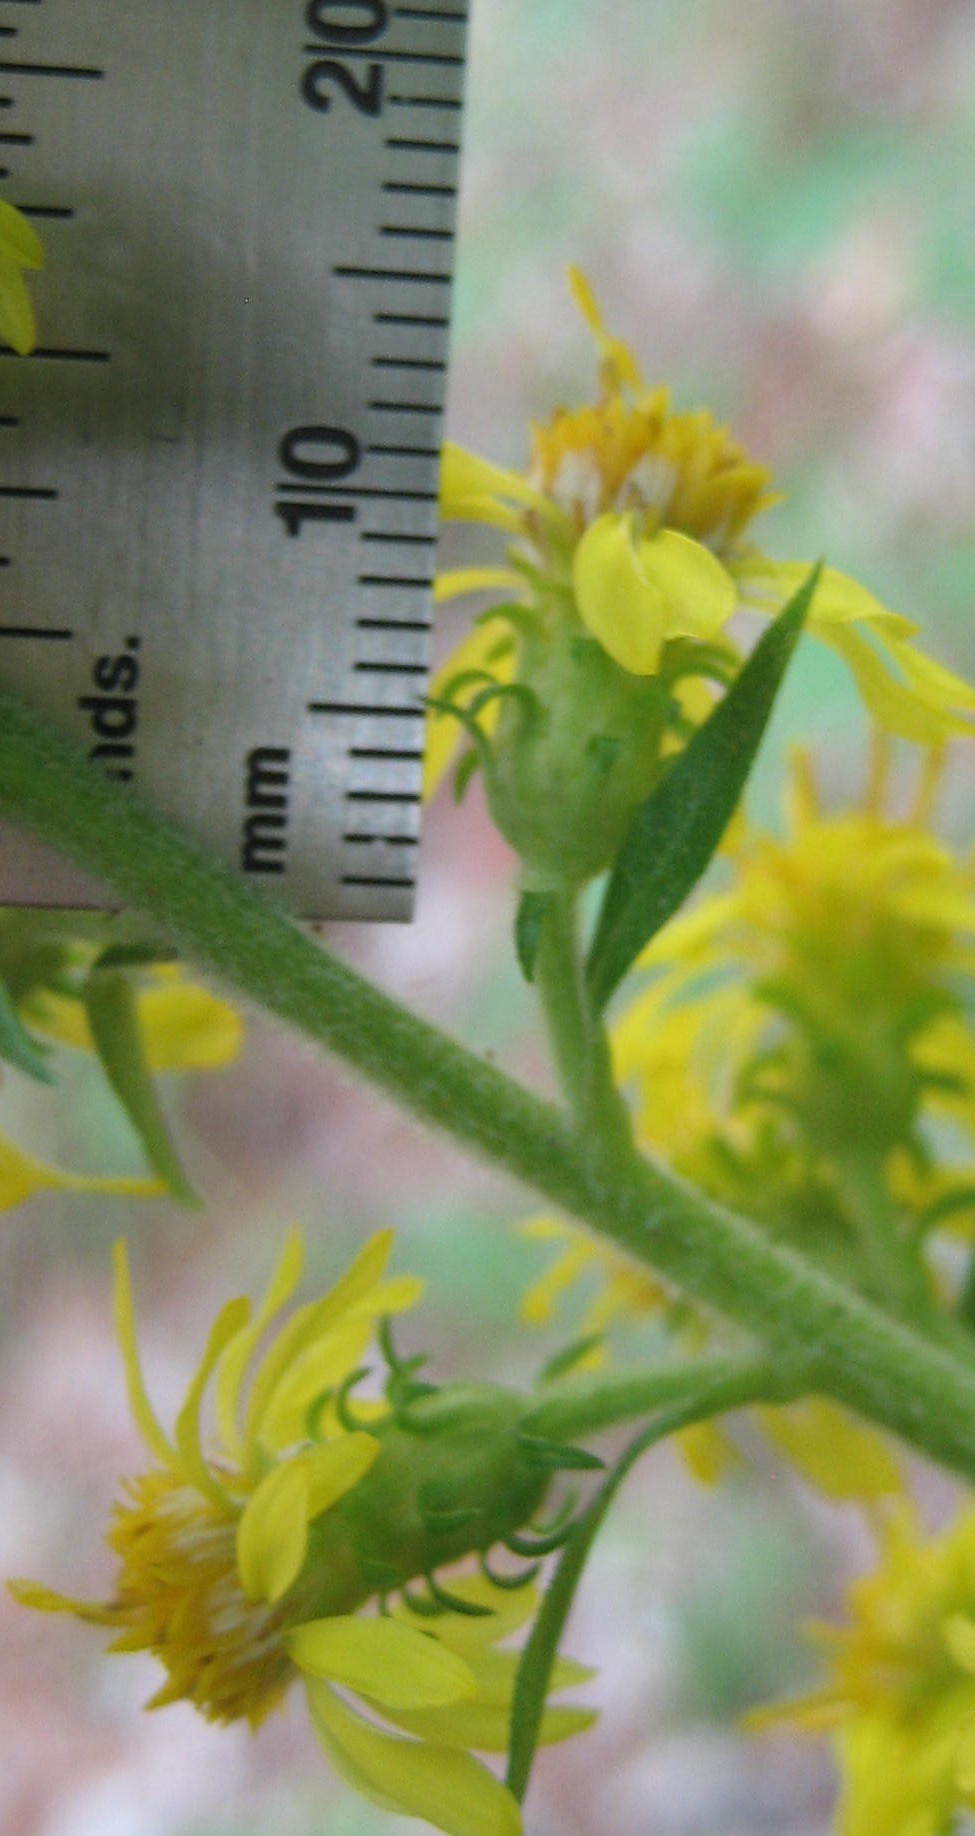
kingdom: Plantae
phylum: Tracheophyta
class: Magnoliopsida
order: Asterales
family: Asteraceae
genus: Solidago
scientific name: Solidago squarrosa
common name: Stout goldenrod
